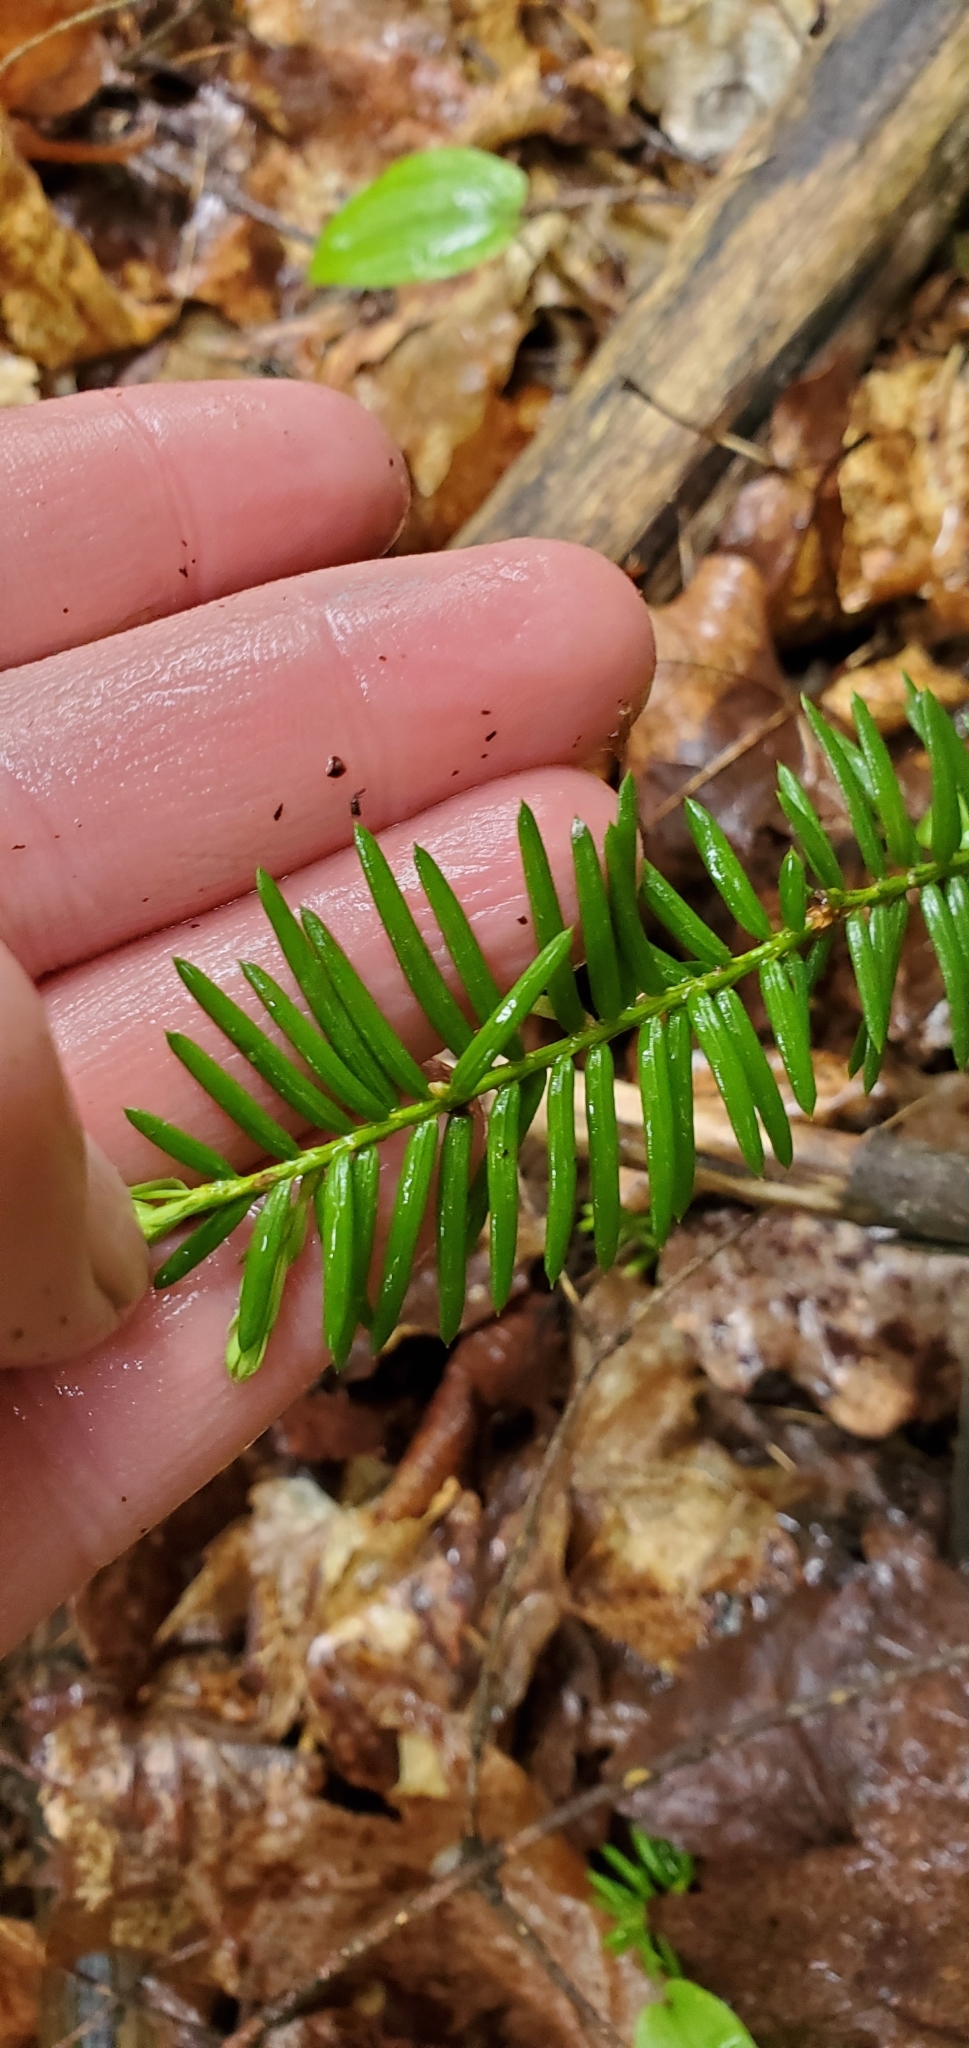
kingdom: Plantae
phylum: Tracheophyta
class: Pinopsida
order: Pinales
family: Taxaceae
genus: Taxus
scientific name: Taxus canadensis
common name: American yew
